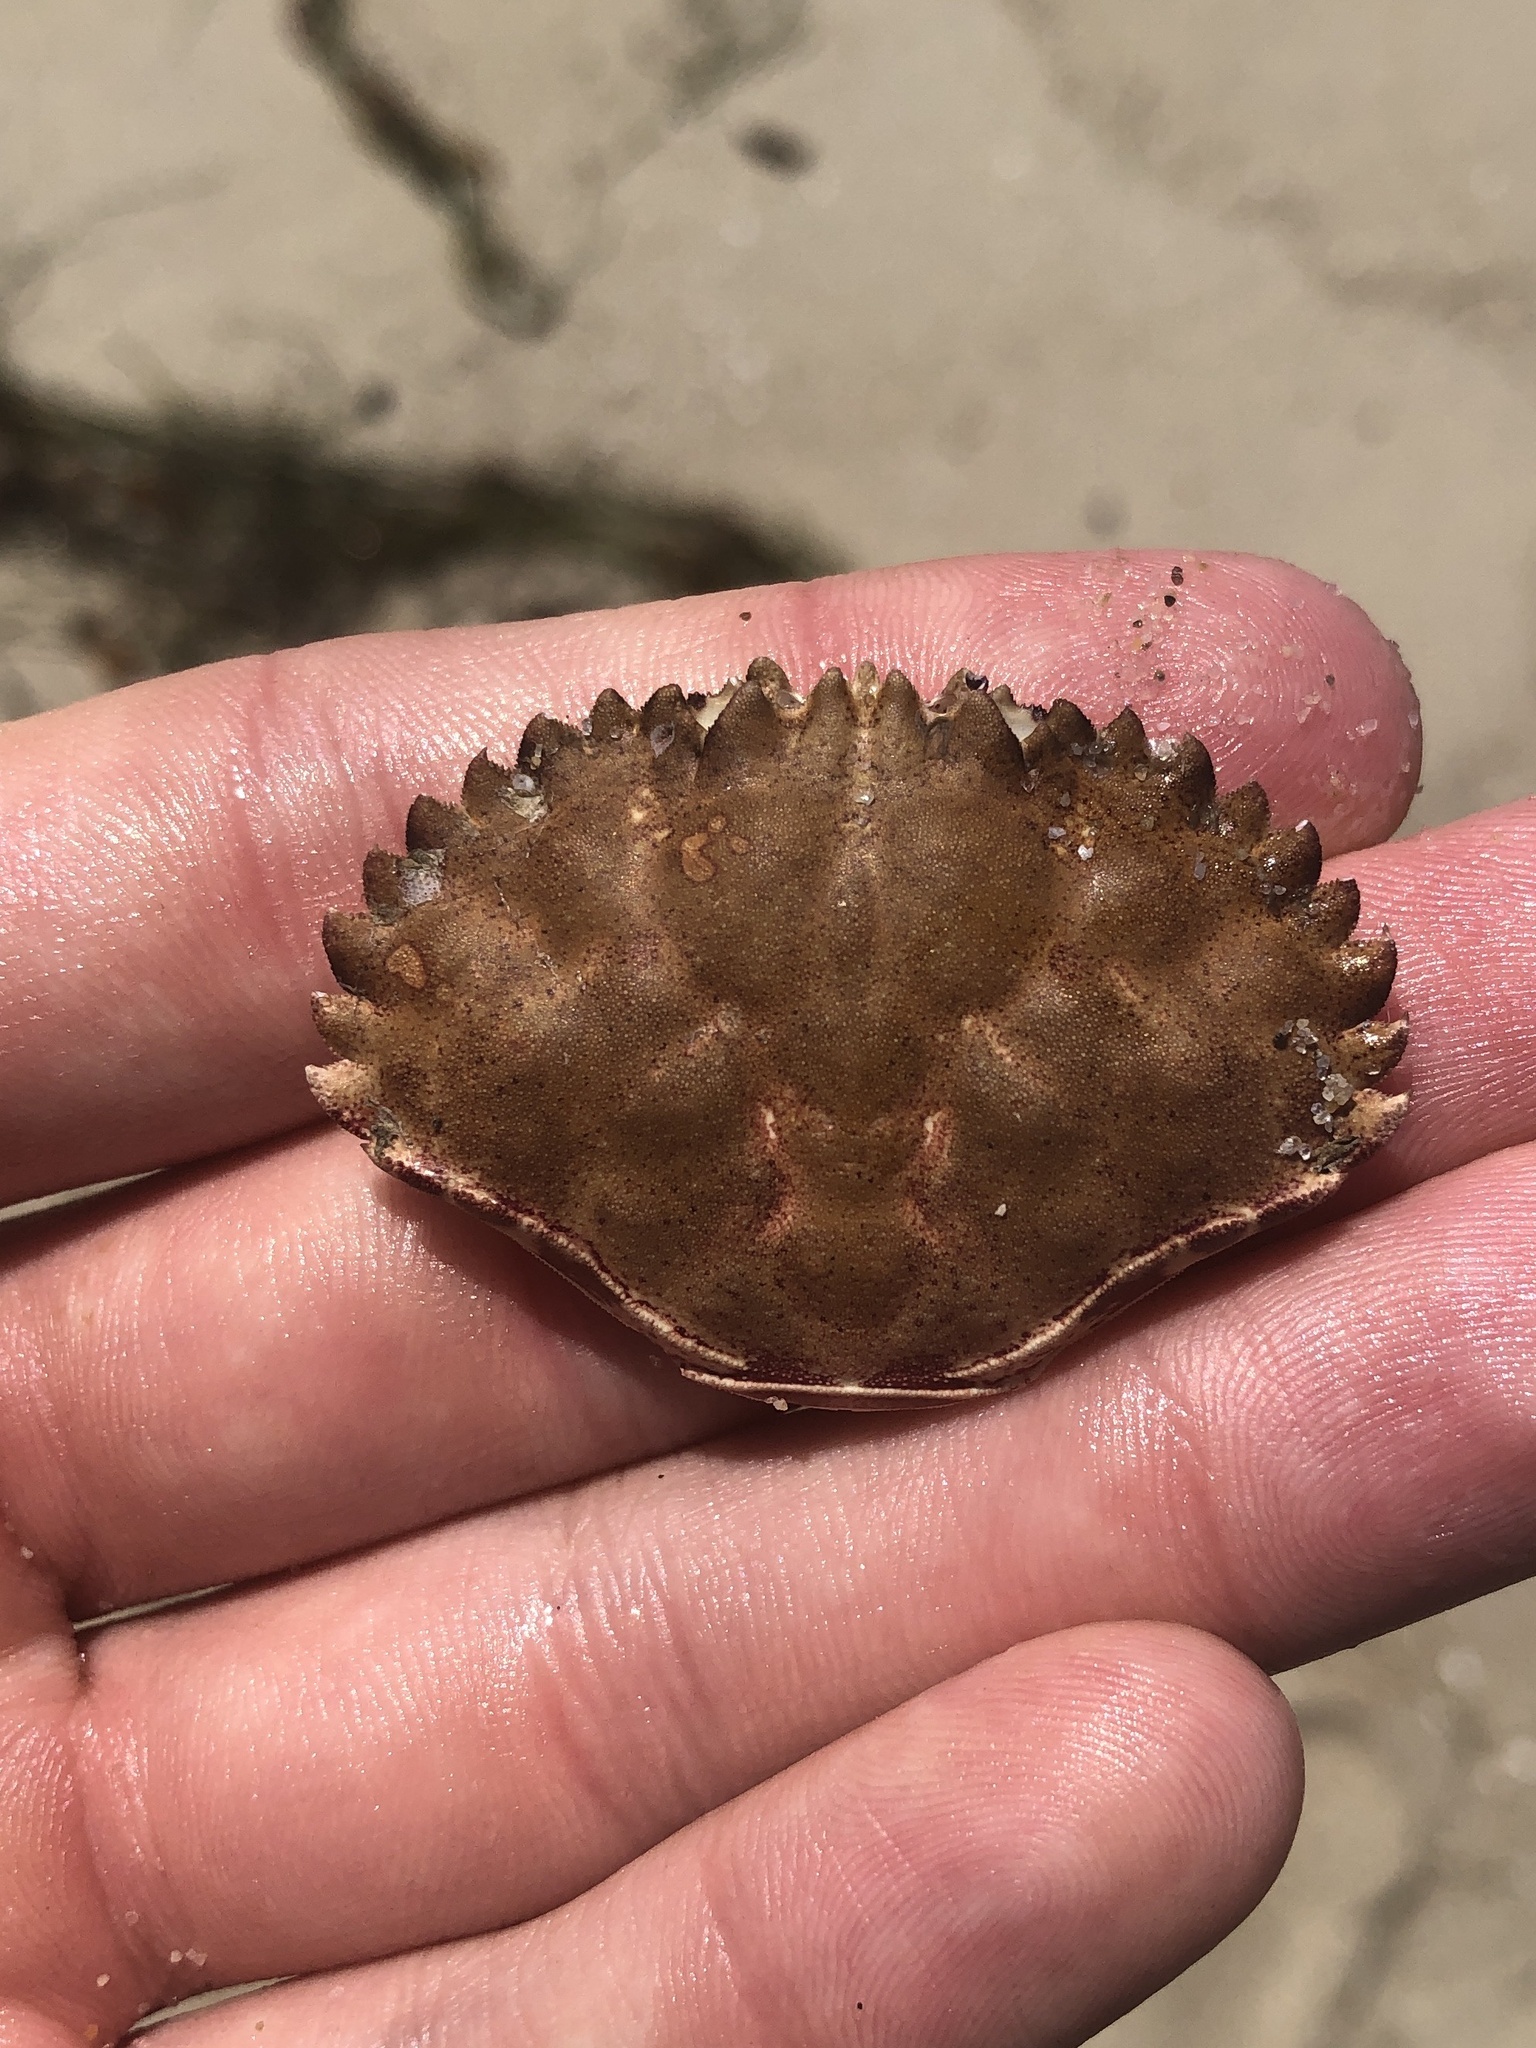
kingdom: Animalia
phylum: Arthropoda
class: Malacostraca
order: Decapoda
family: Cancridae
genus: Romaleon
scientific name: Romaleon antennarium
